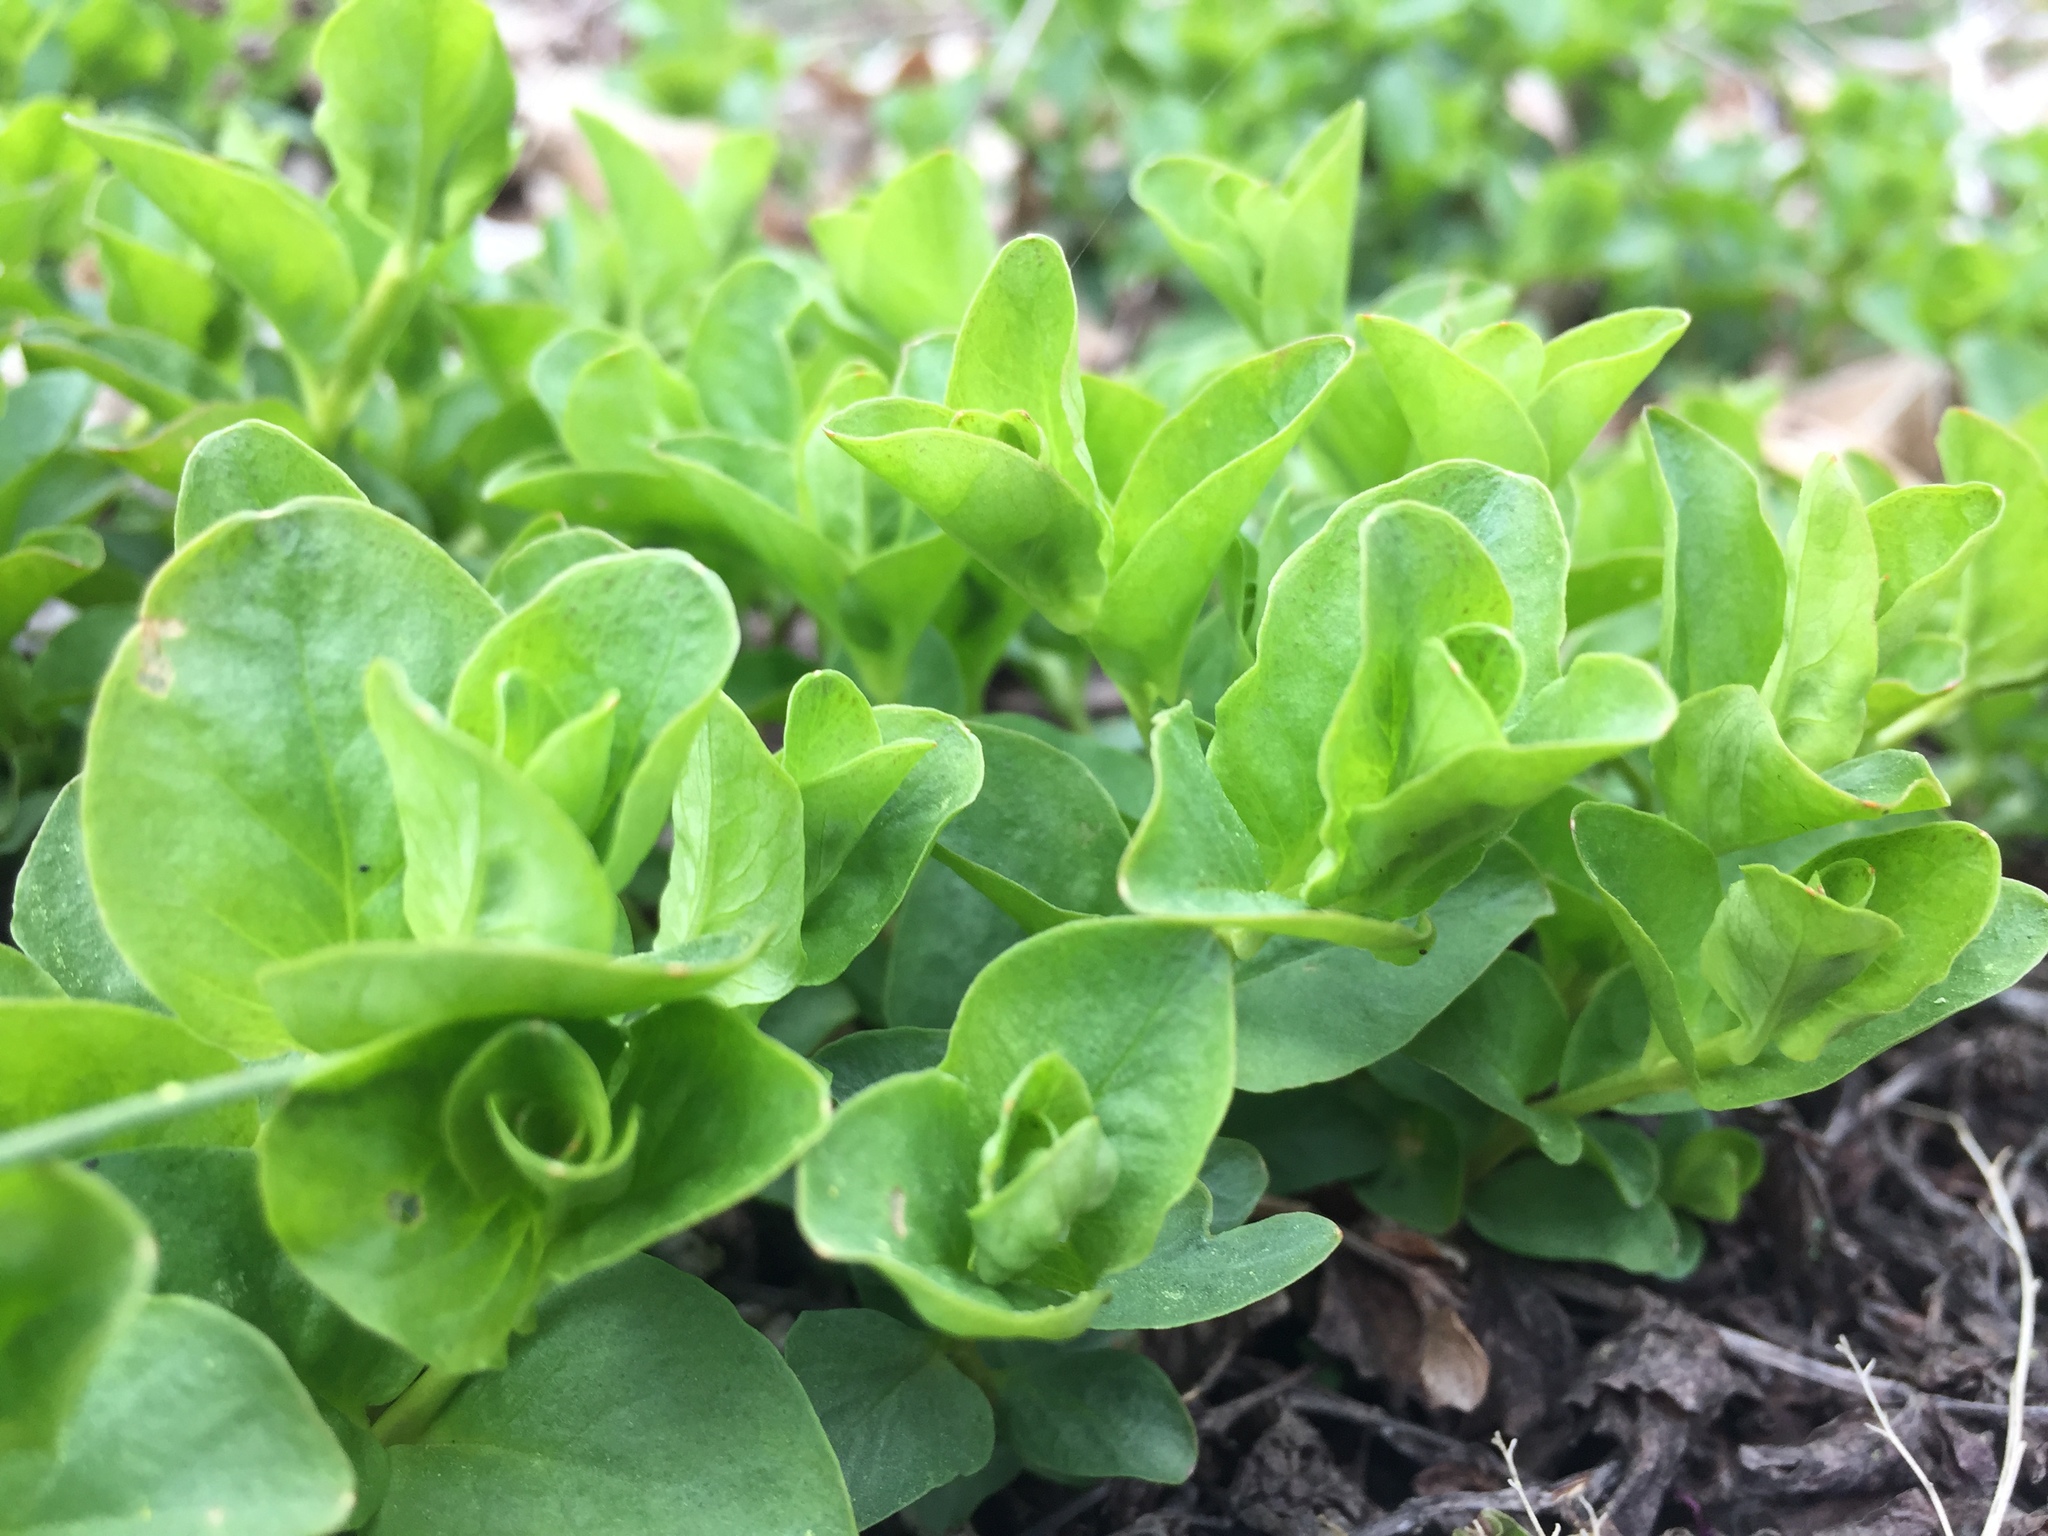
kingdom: Plantae
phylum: Tracheophyta
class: Magnoliopsida
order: Ericales
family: Primulaceae
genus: Lysimachia
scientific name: Lysimachia nummularia
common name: Moneywort
